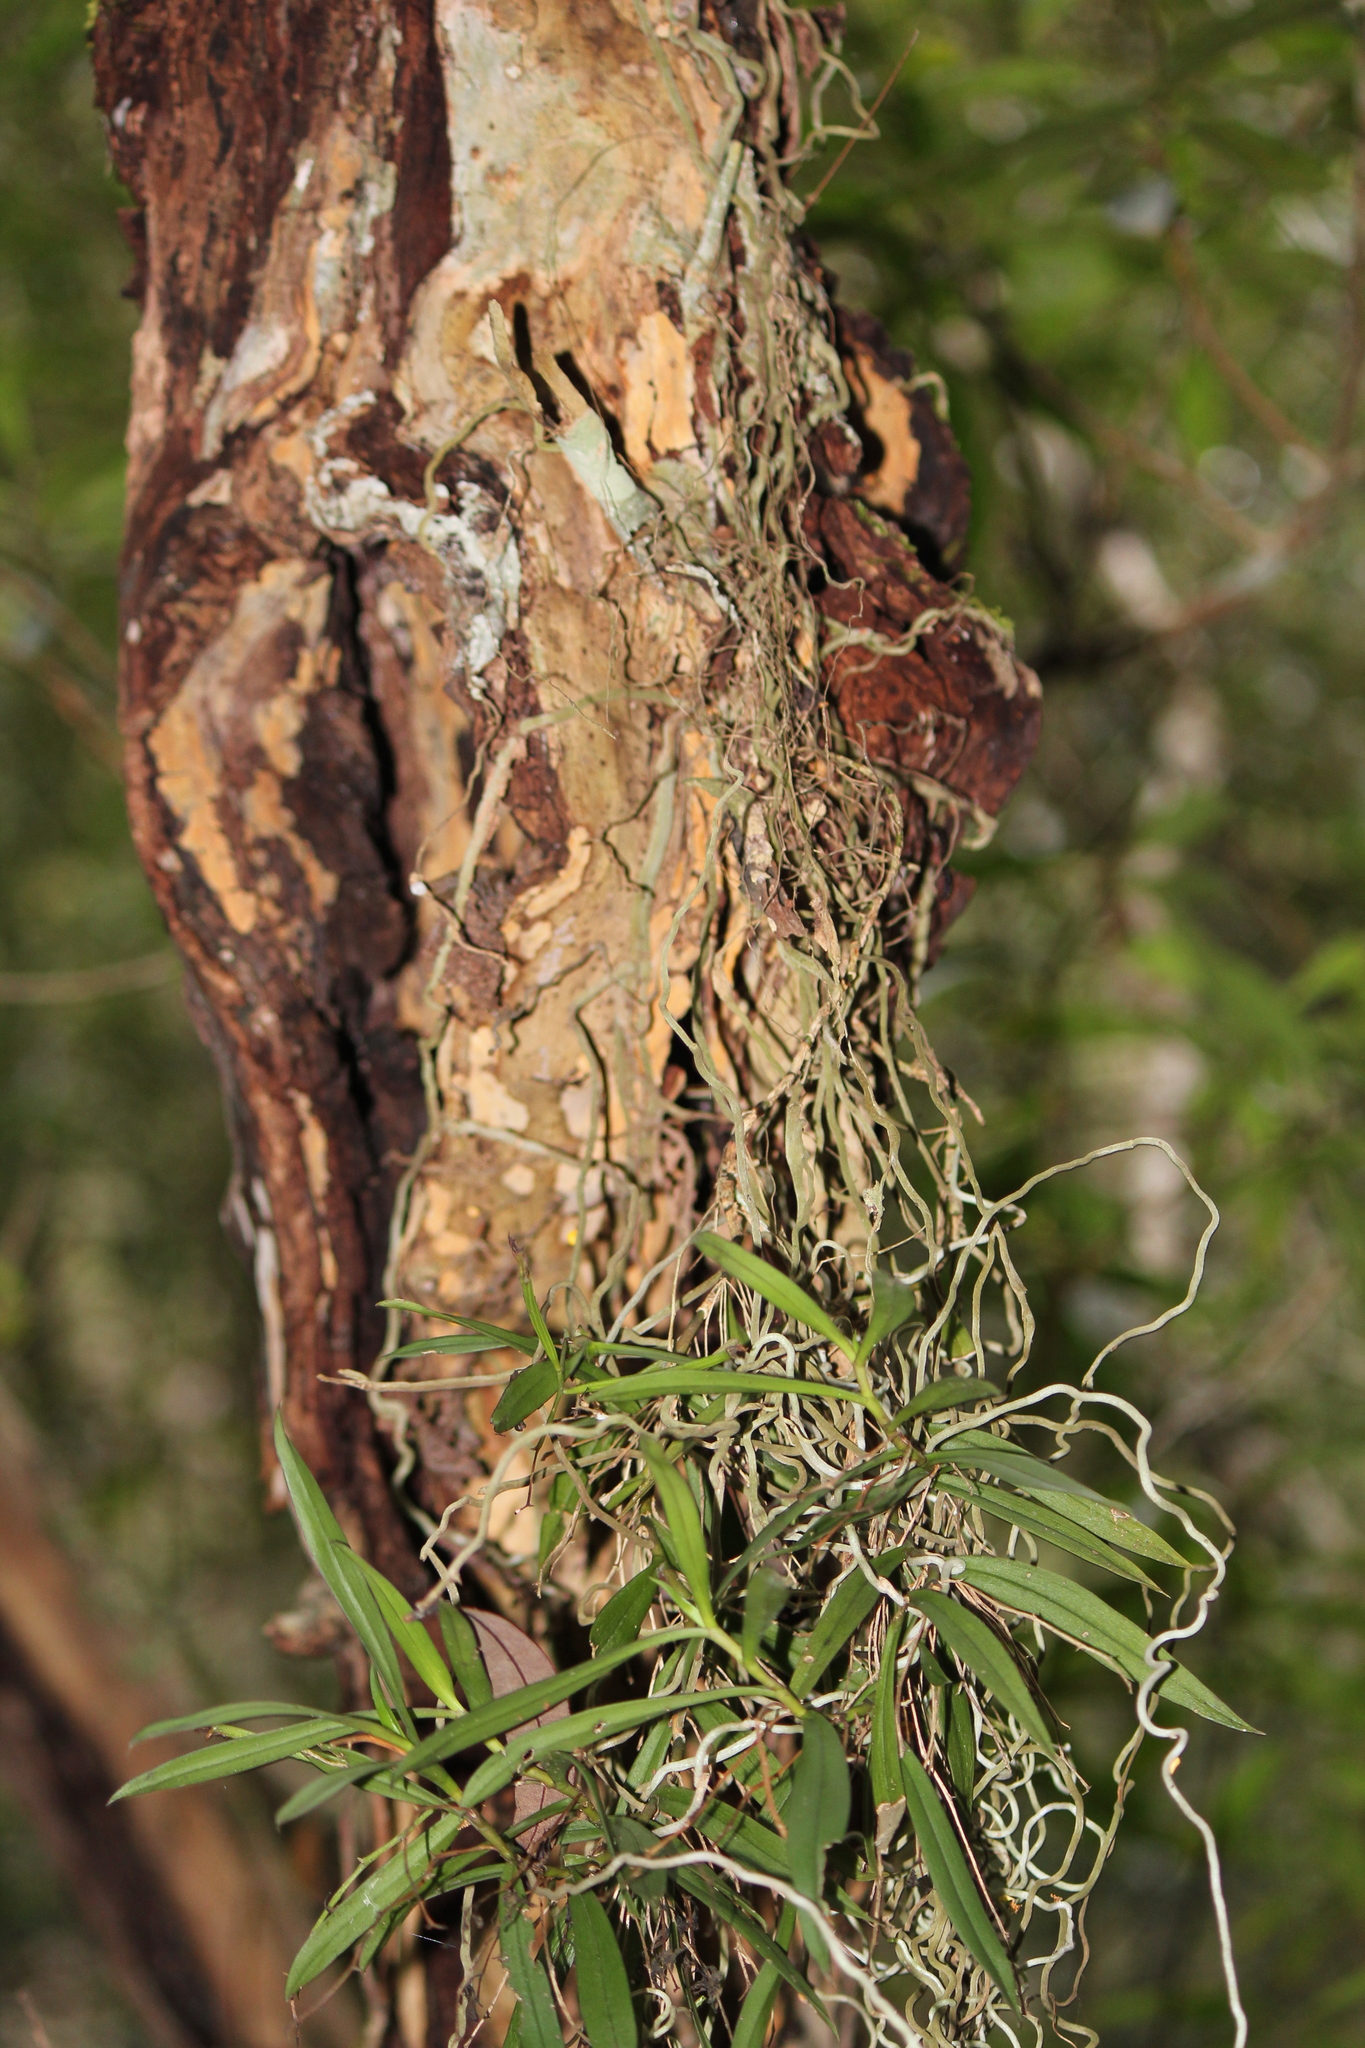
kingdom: Plantae
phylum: Tracheophyta
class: Liliopsida
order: Asparagales
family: Orchidaceae
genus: Plectorrhiza
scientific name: Plectorrhiza tridentata
